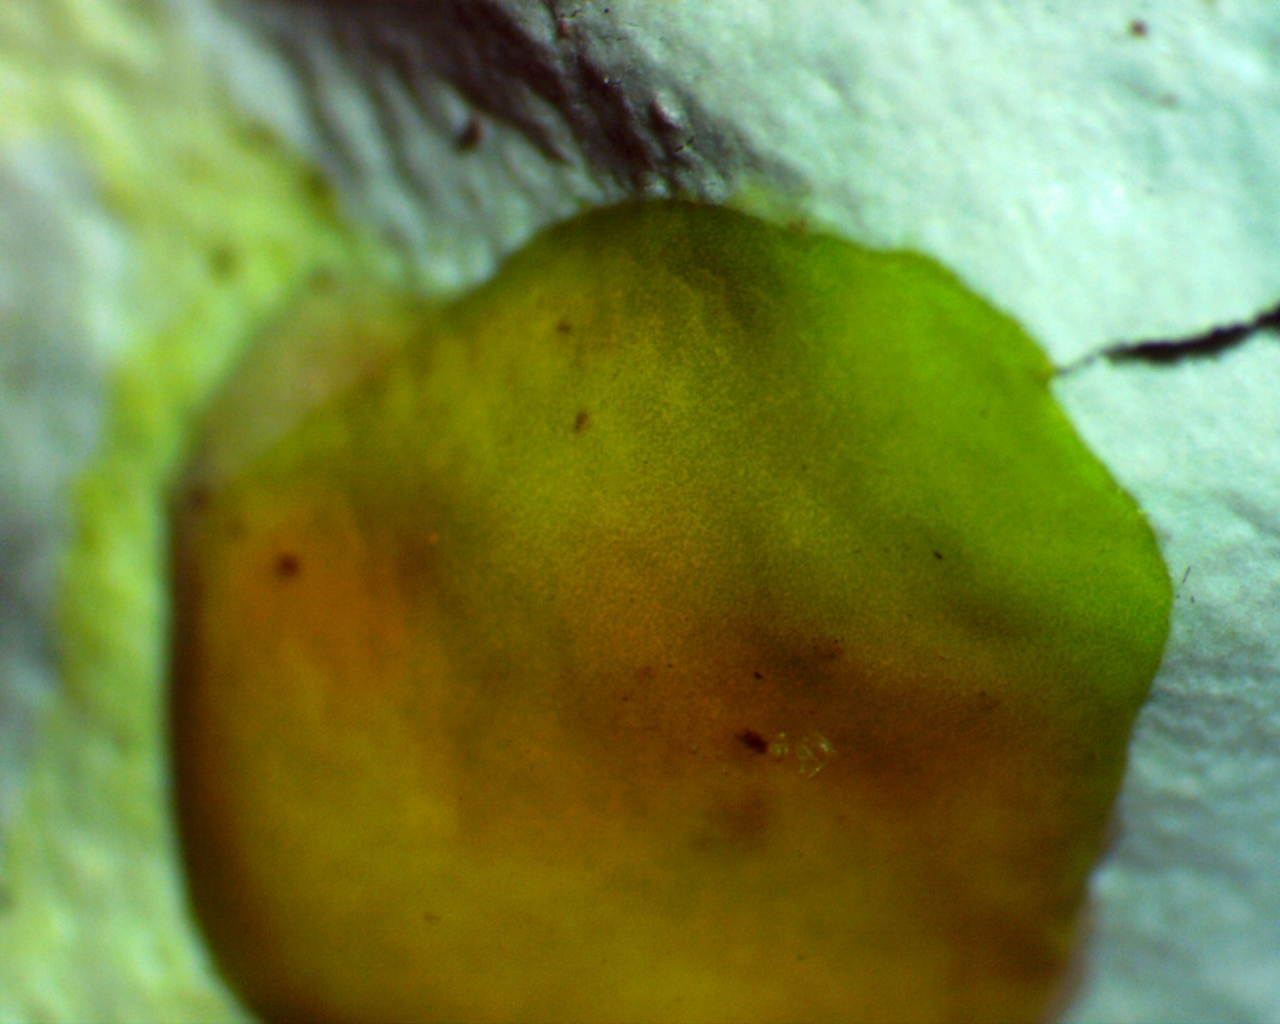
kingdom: Fungi
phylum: Ascomycota
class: Lecanoromycetes
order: Lecanorales
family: Parmeliaceae
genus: Parmotrema
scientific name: Parmotrema tinctorum
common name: Old gray ruffles
